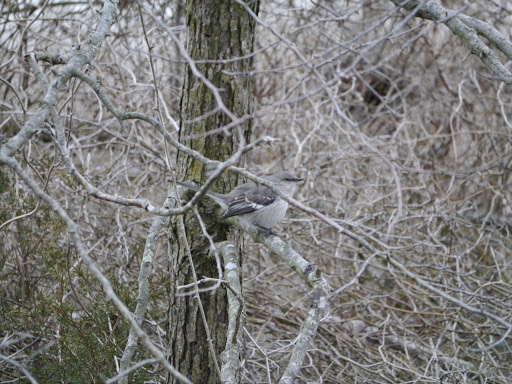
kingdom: Animalia
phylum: Chordata
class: Aves
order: Passeriformes
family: Mimidae
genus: Mimus
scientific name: Mimus polyglottos
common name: Northern mockingbird
